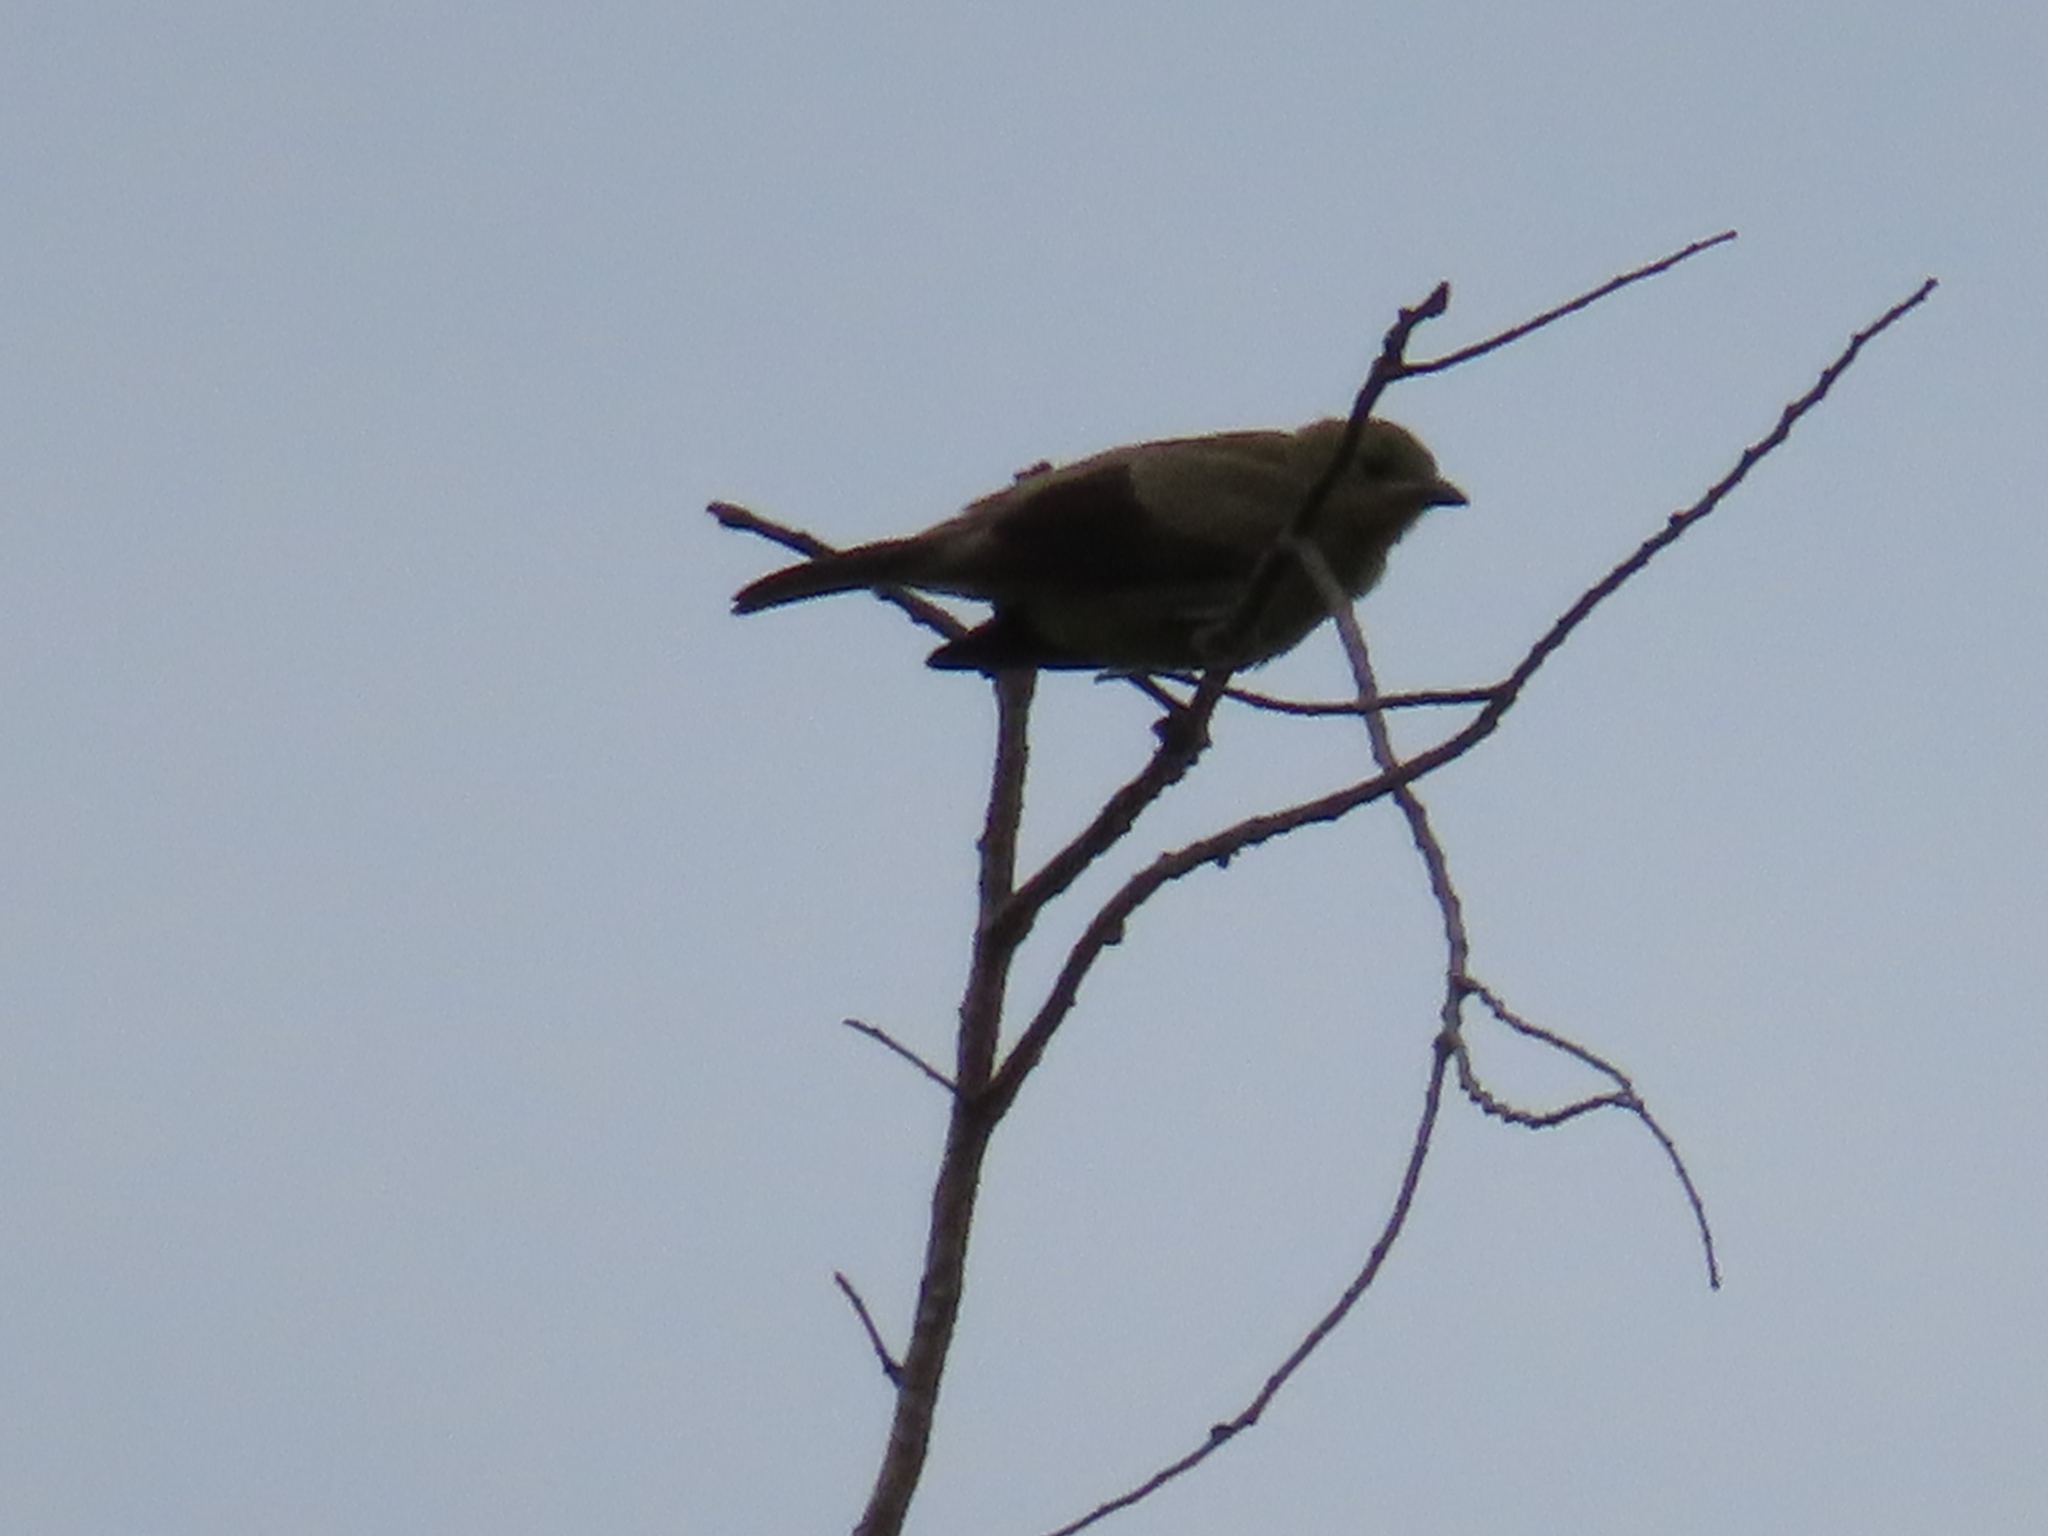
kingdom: Animalia
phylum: Chordata
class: Aves
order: Passeriformes
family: Thraupidae
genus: Thraupis
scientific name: Thraupis palmarum
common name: Palm tanager
